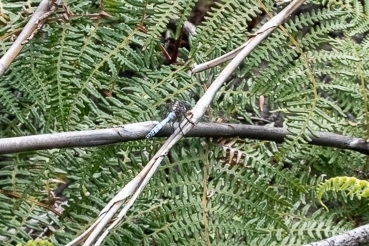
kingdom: Animalia
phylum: Arthropoda
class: Insecta
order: Odonata
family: Libellulidae
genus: Orthetrum
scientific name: Orthetrum julia
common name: Julia skimmer
